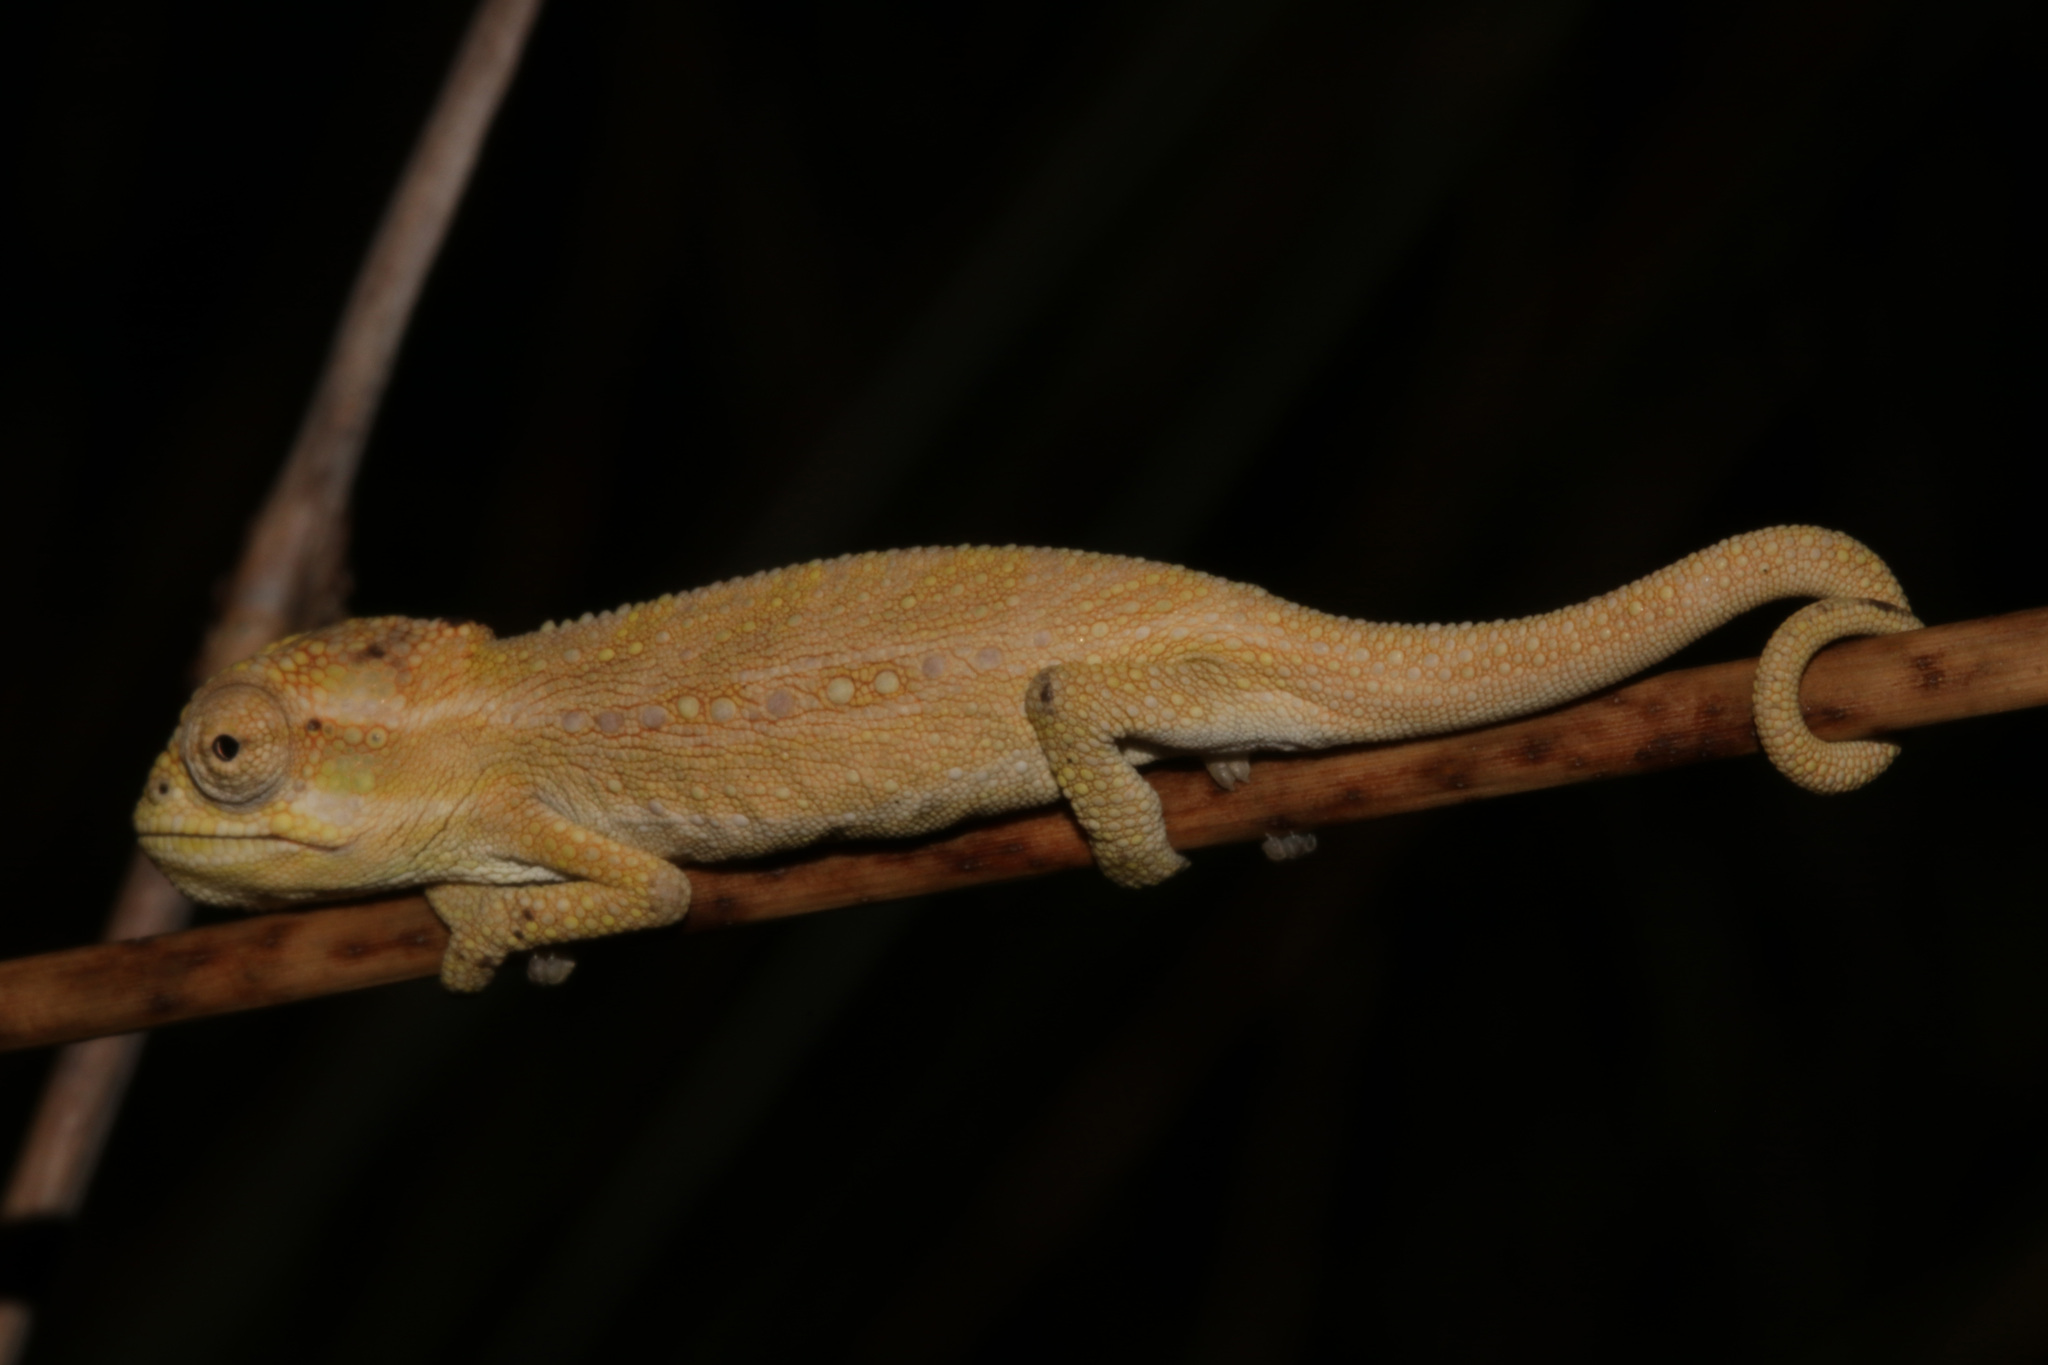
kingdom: Animalia
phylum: Chordata
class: Squamata
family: Chamaeleonidae
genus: Bradypodion
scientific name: Bradypodion pumilum
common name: Cape dwarf chameleon
